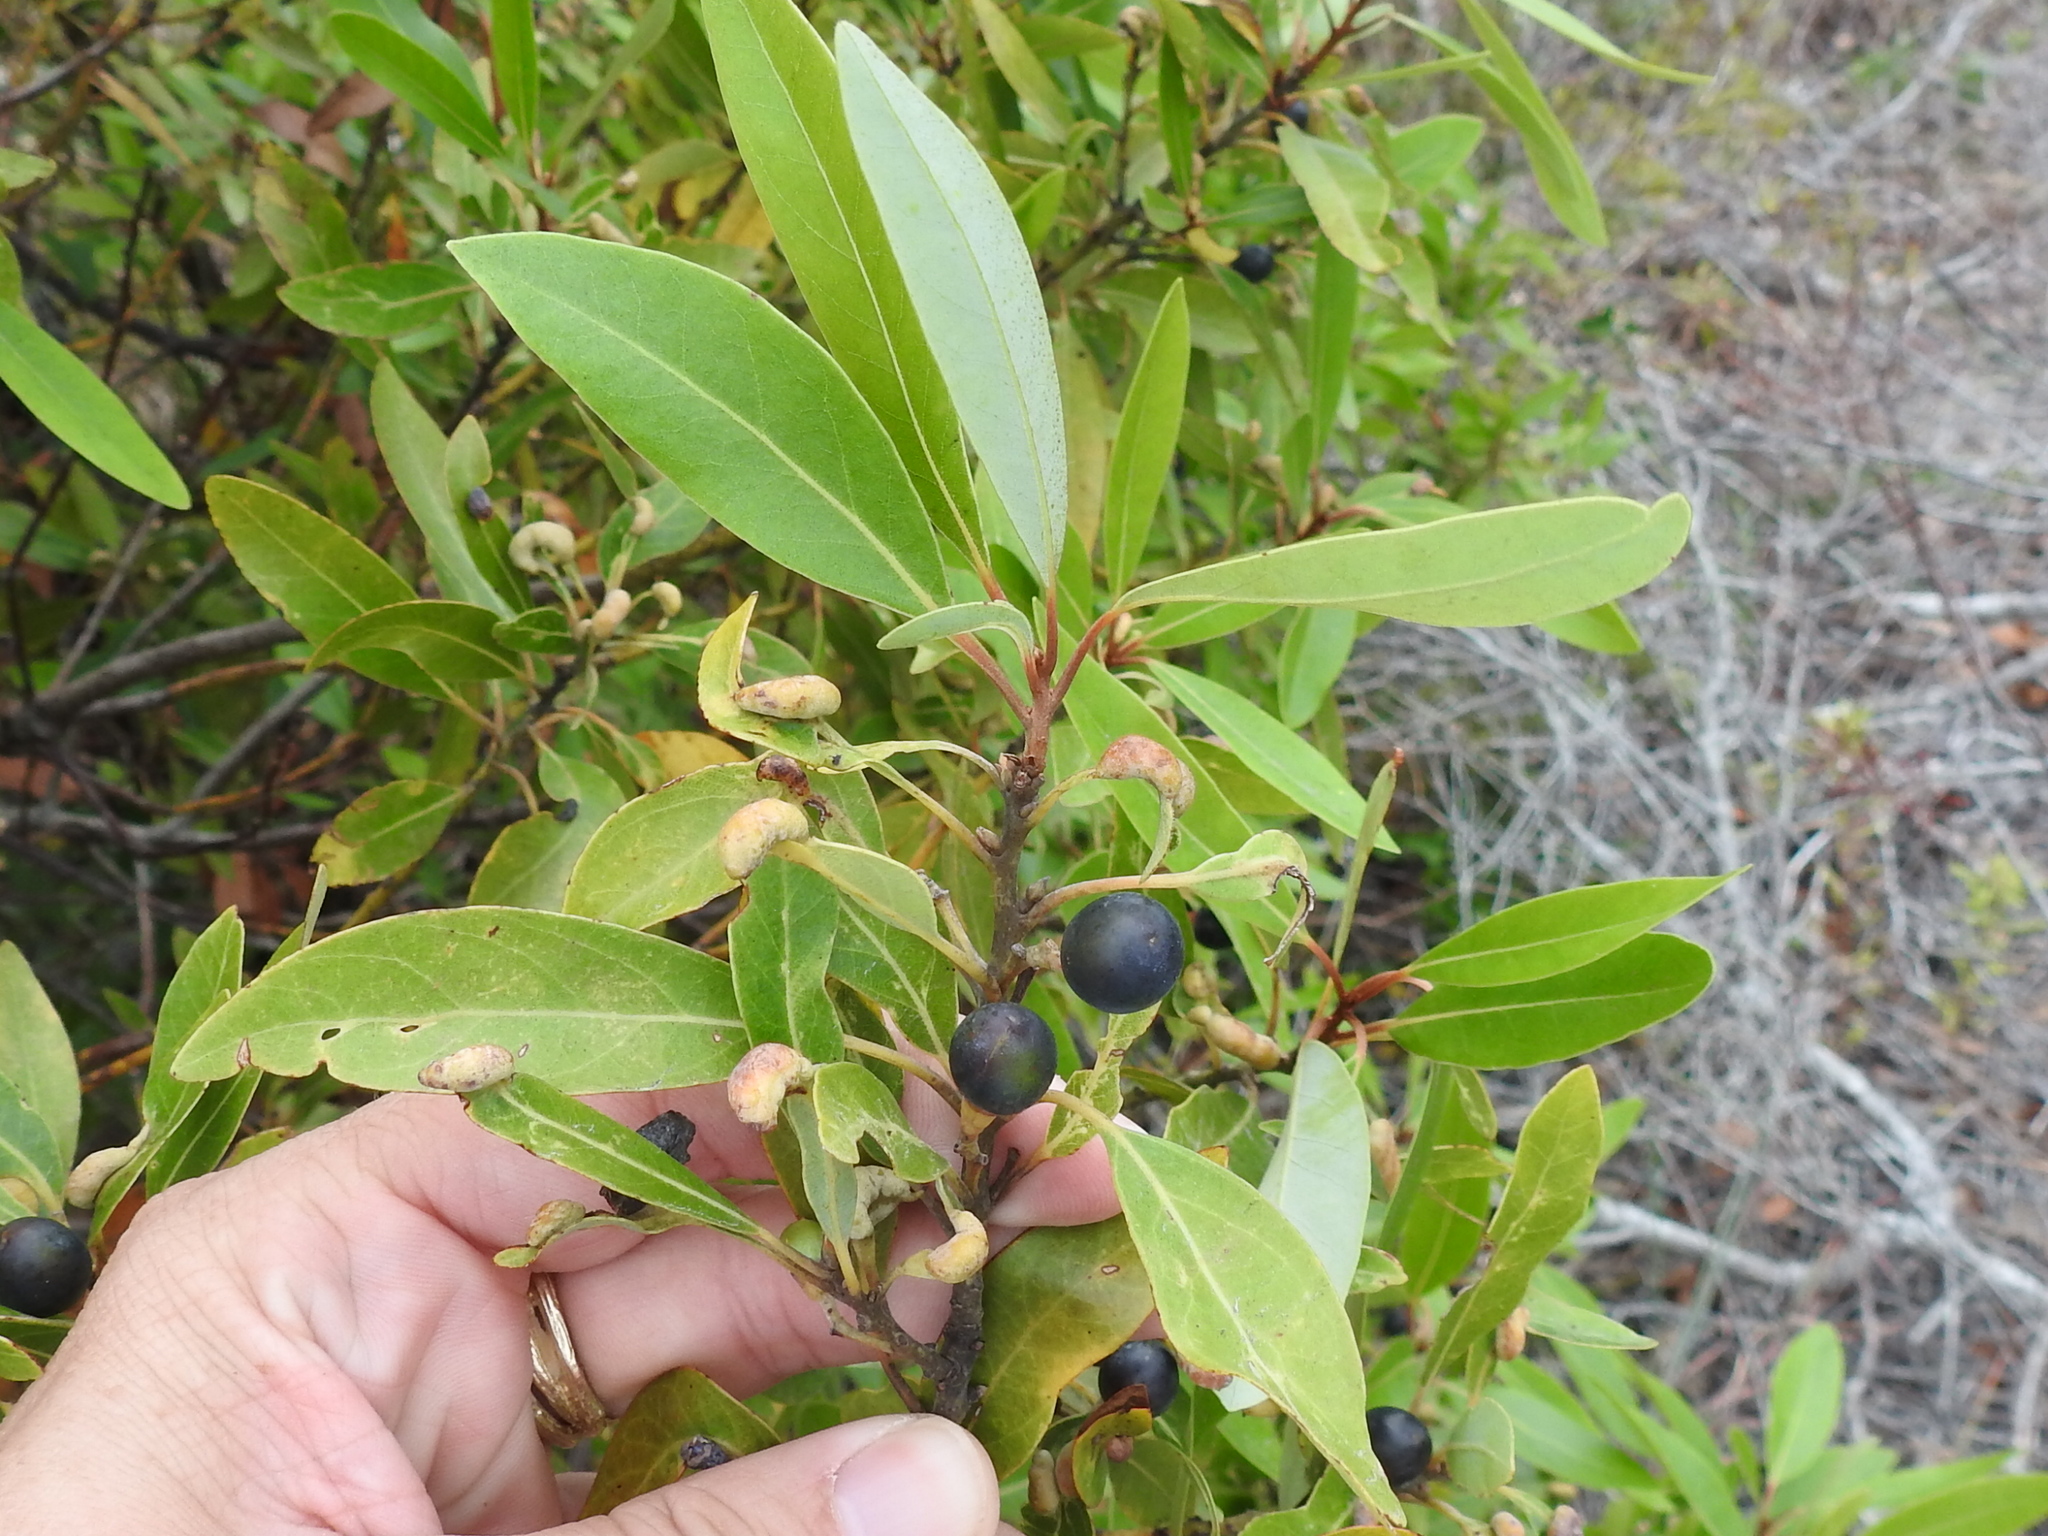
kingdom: Plantae
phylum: Tracheophyta
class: Magnoliopsida
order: Laurales
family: Lauraceae
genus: Persea
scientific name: Persea borbonia
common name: Redbay
